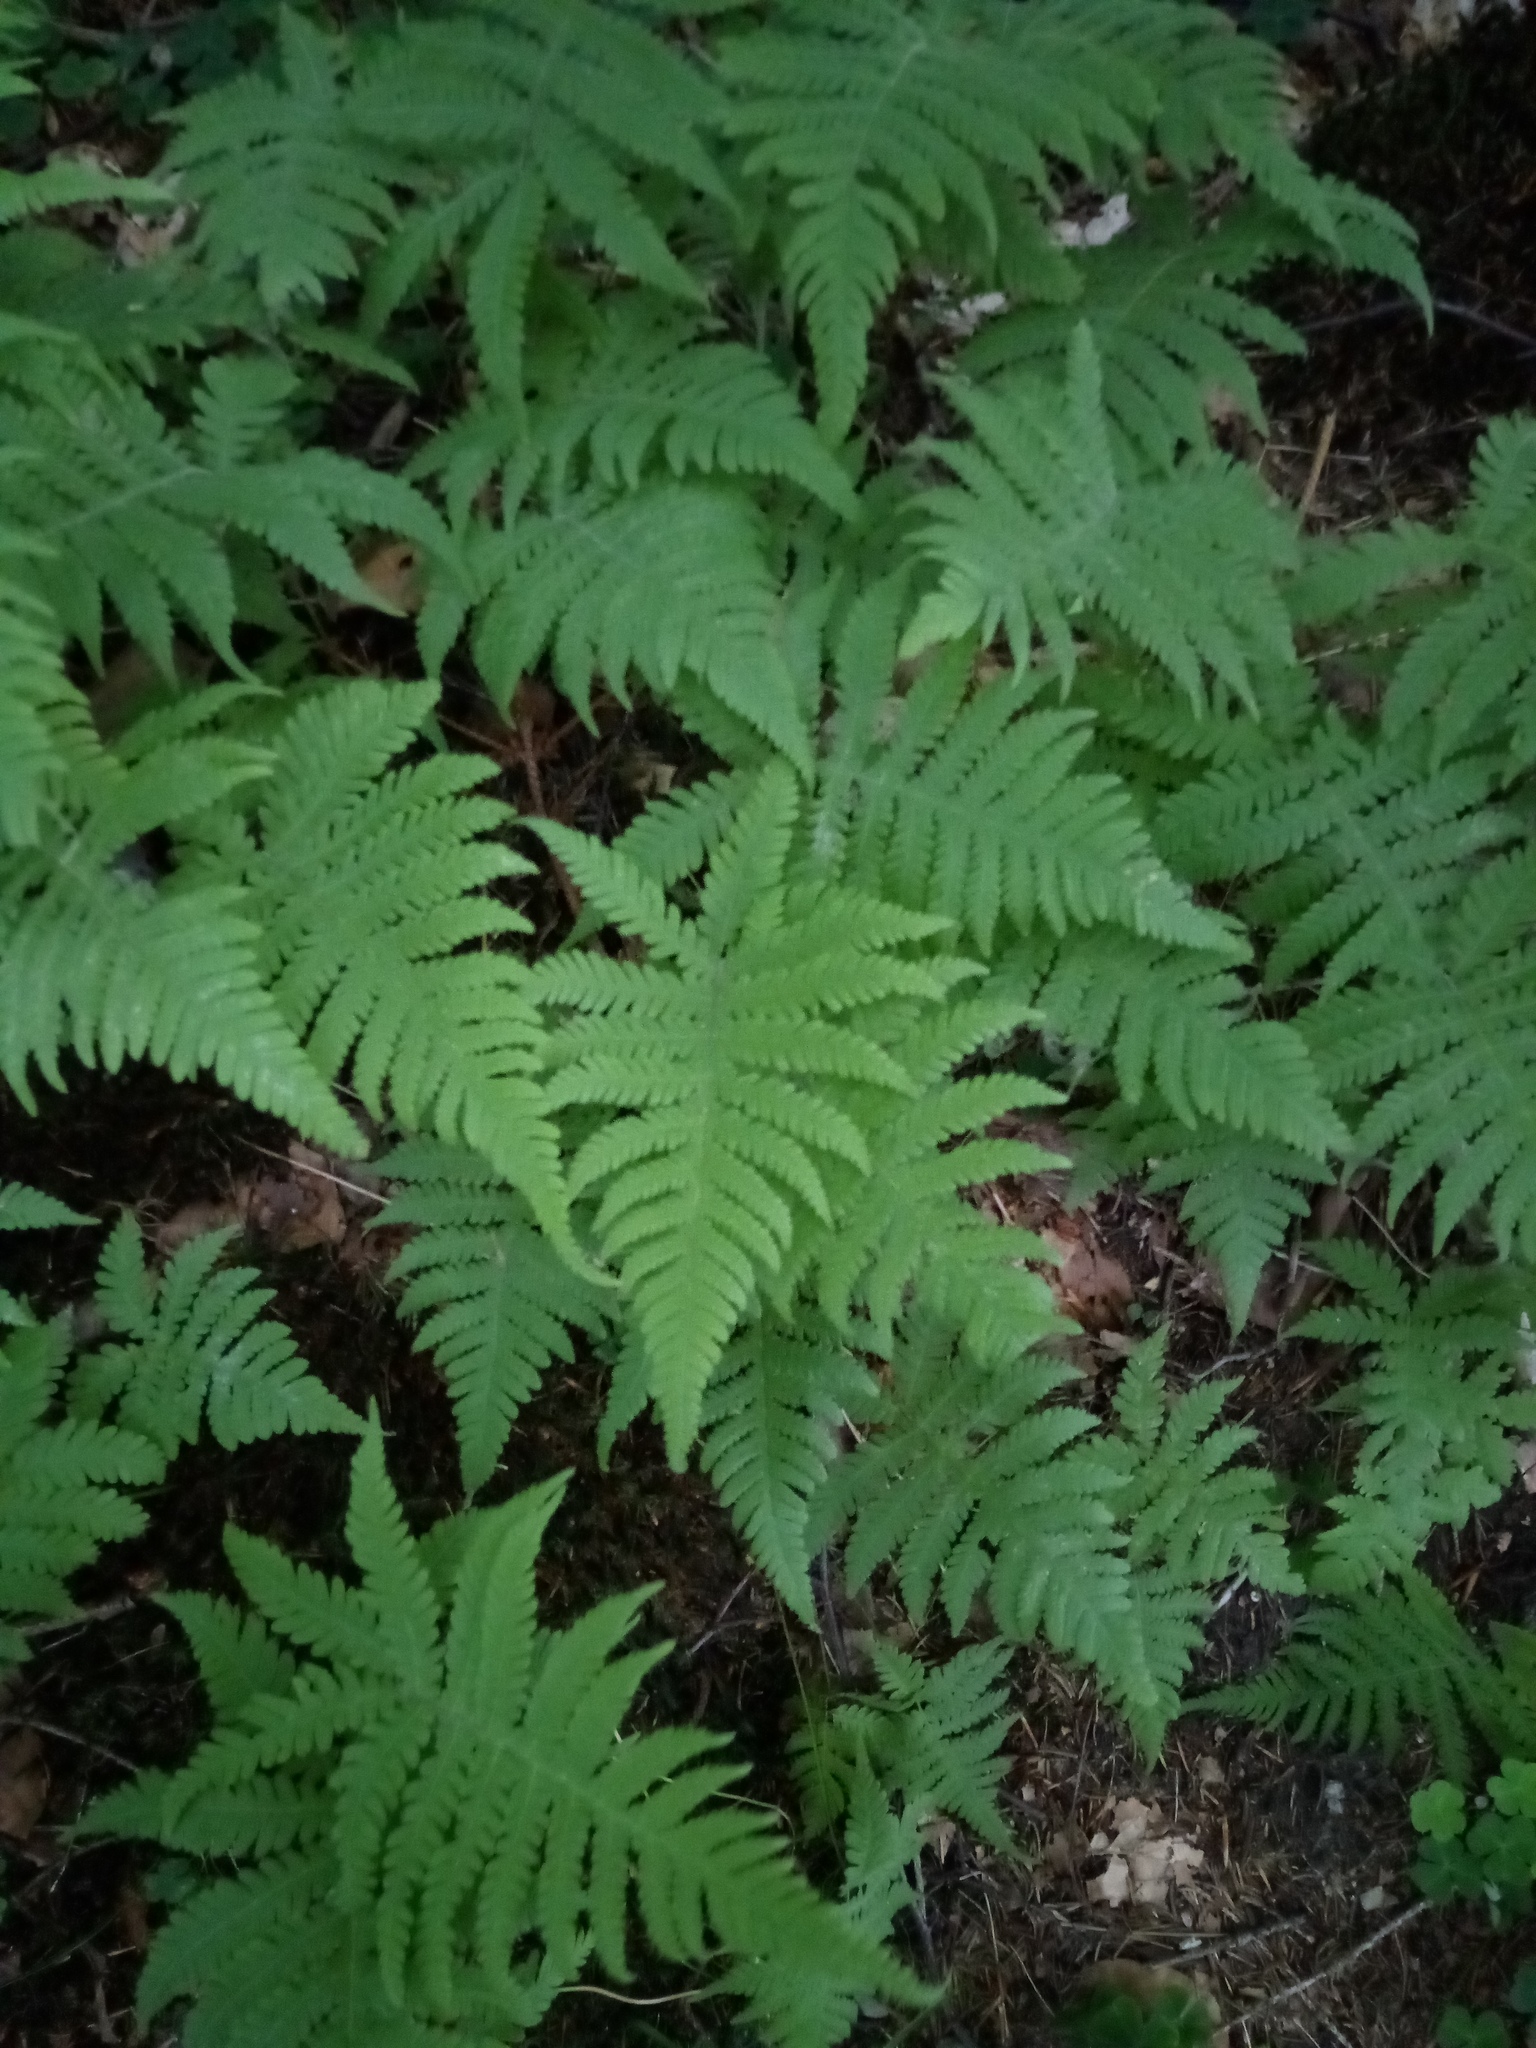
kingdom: Plantae
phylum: Tracheophyta
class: Polypodiopsida
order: Polypodiales
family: Thelypteridaceae
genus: Phegopteris
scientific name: Phegopteris connectilis
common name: Beech fern
